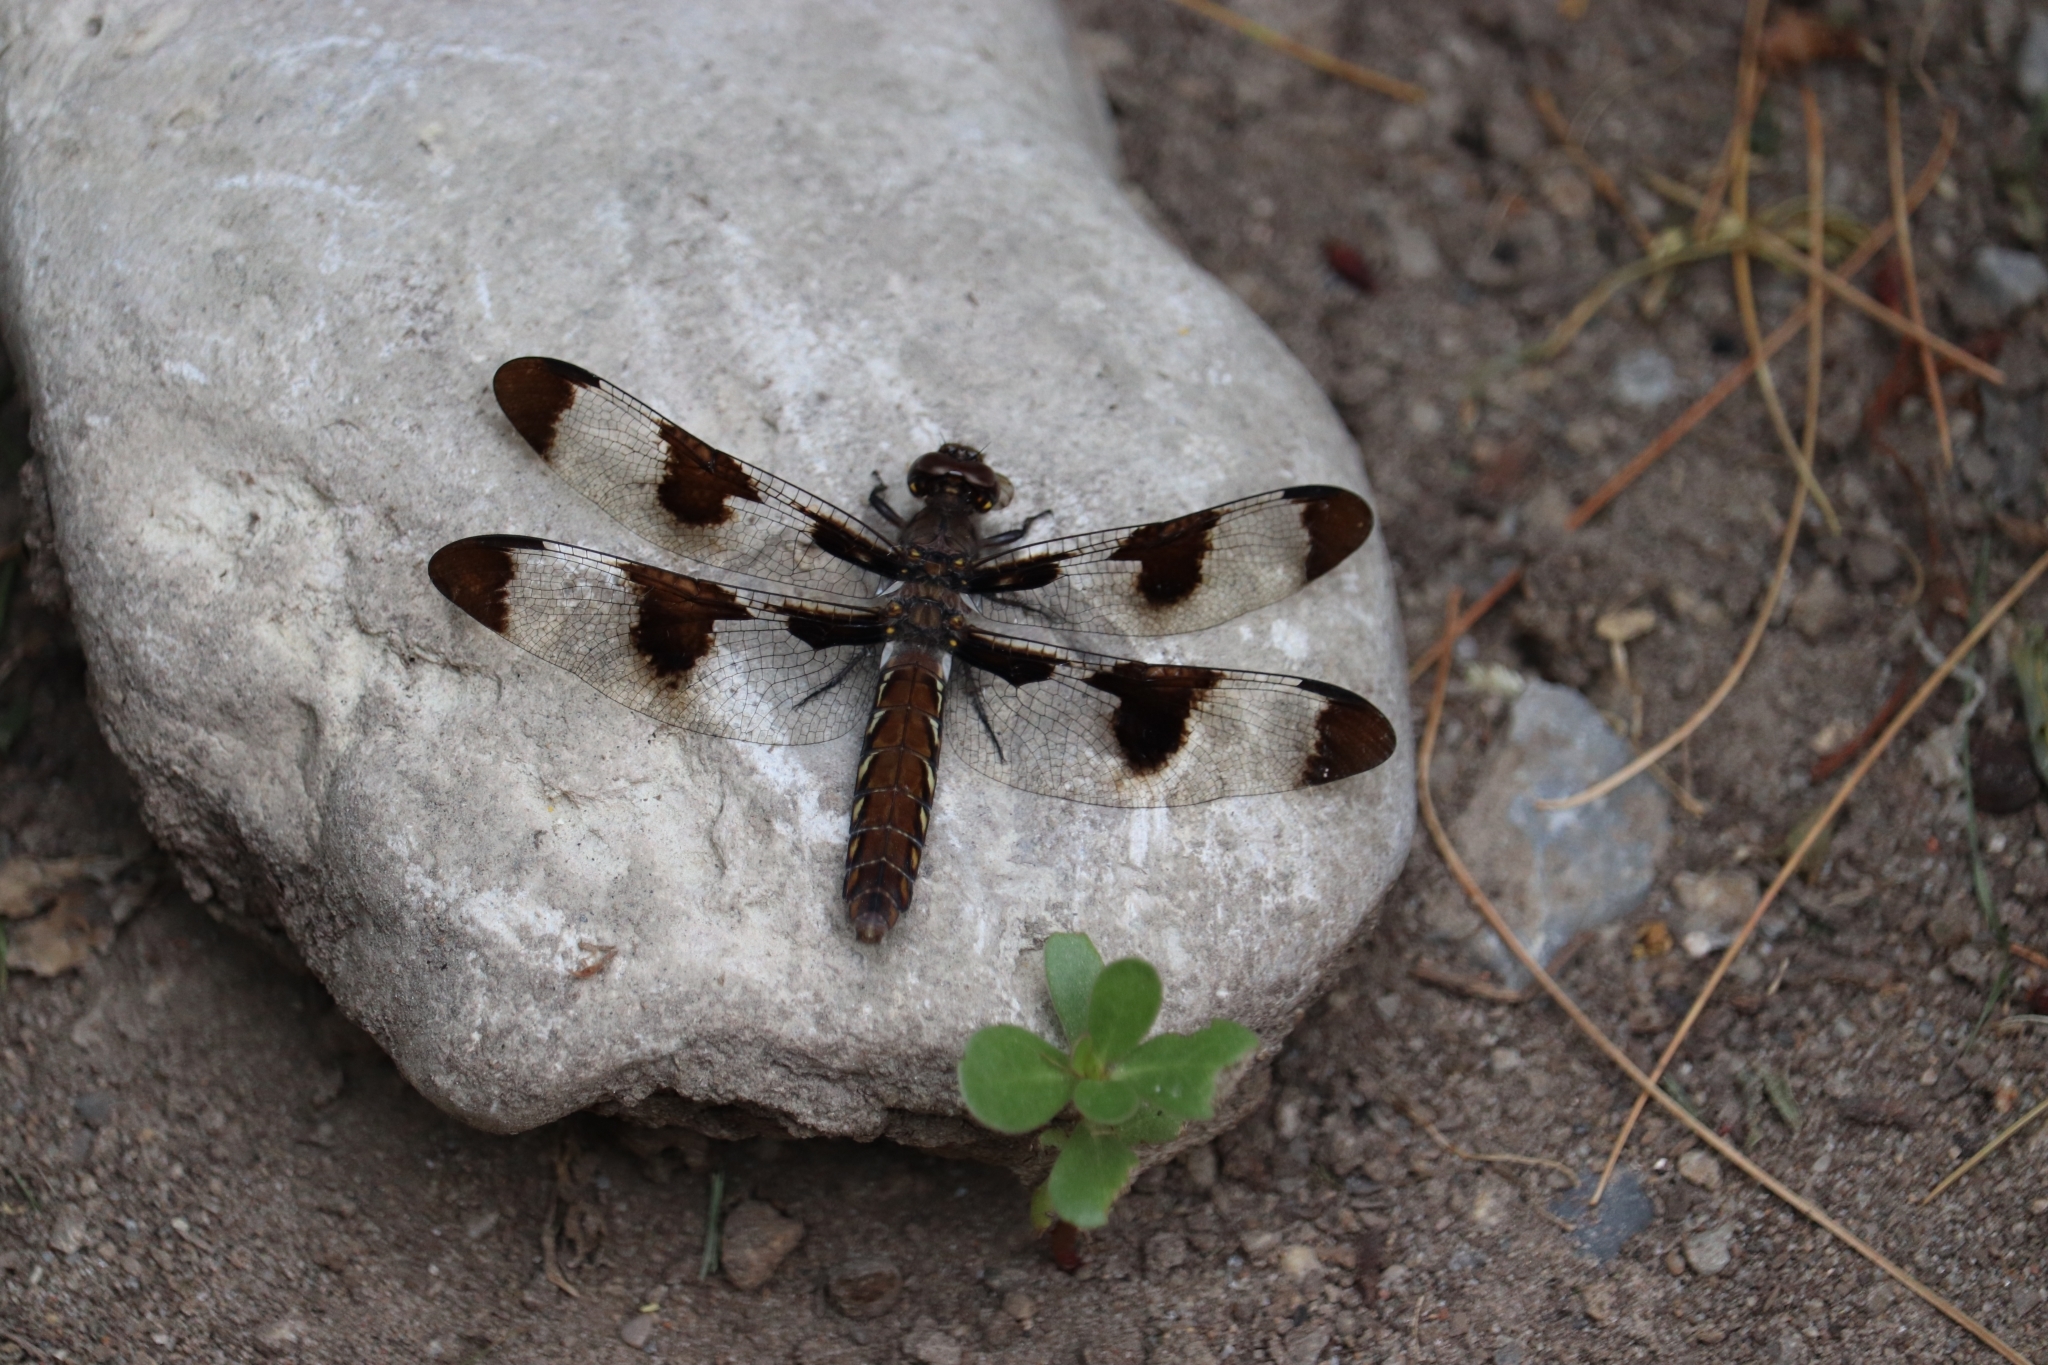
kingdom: Animalia
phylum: Arthropoda
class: Insecta
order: Odonata
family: Libellulidae
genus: Plathemis
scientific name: Plathemis lydia
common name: Common whitetail
